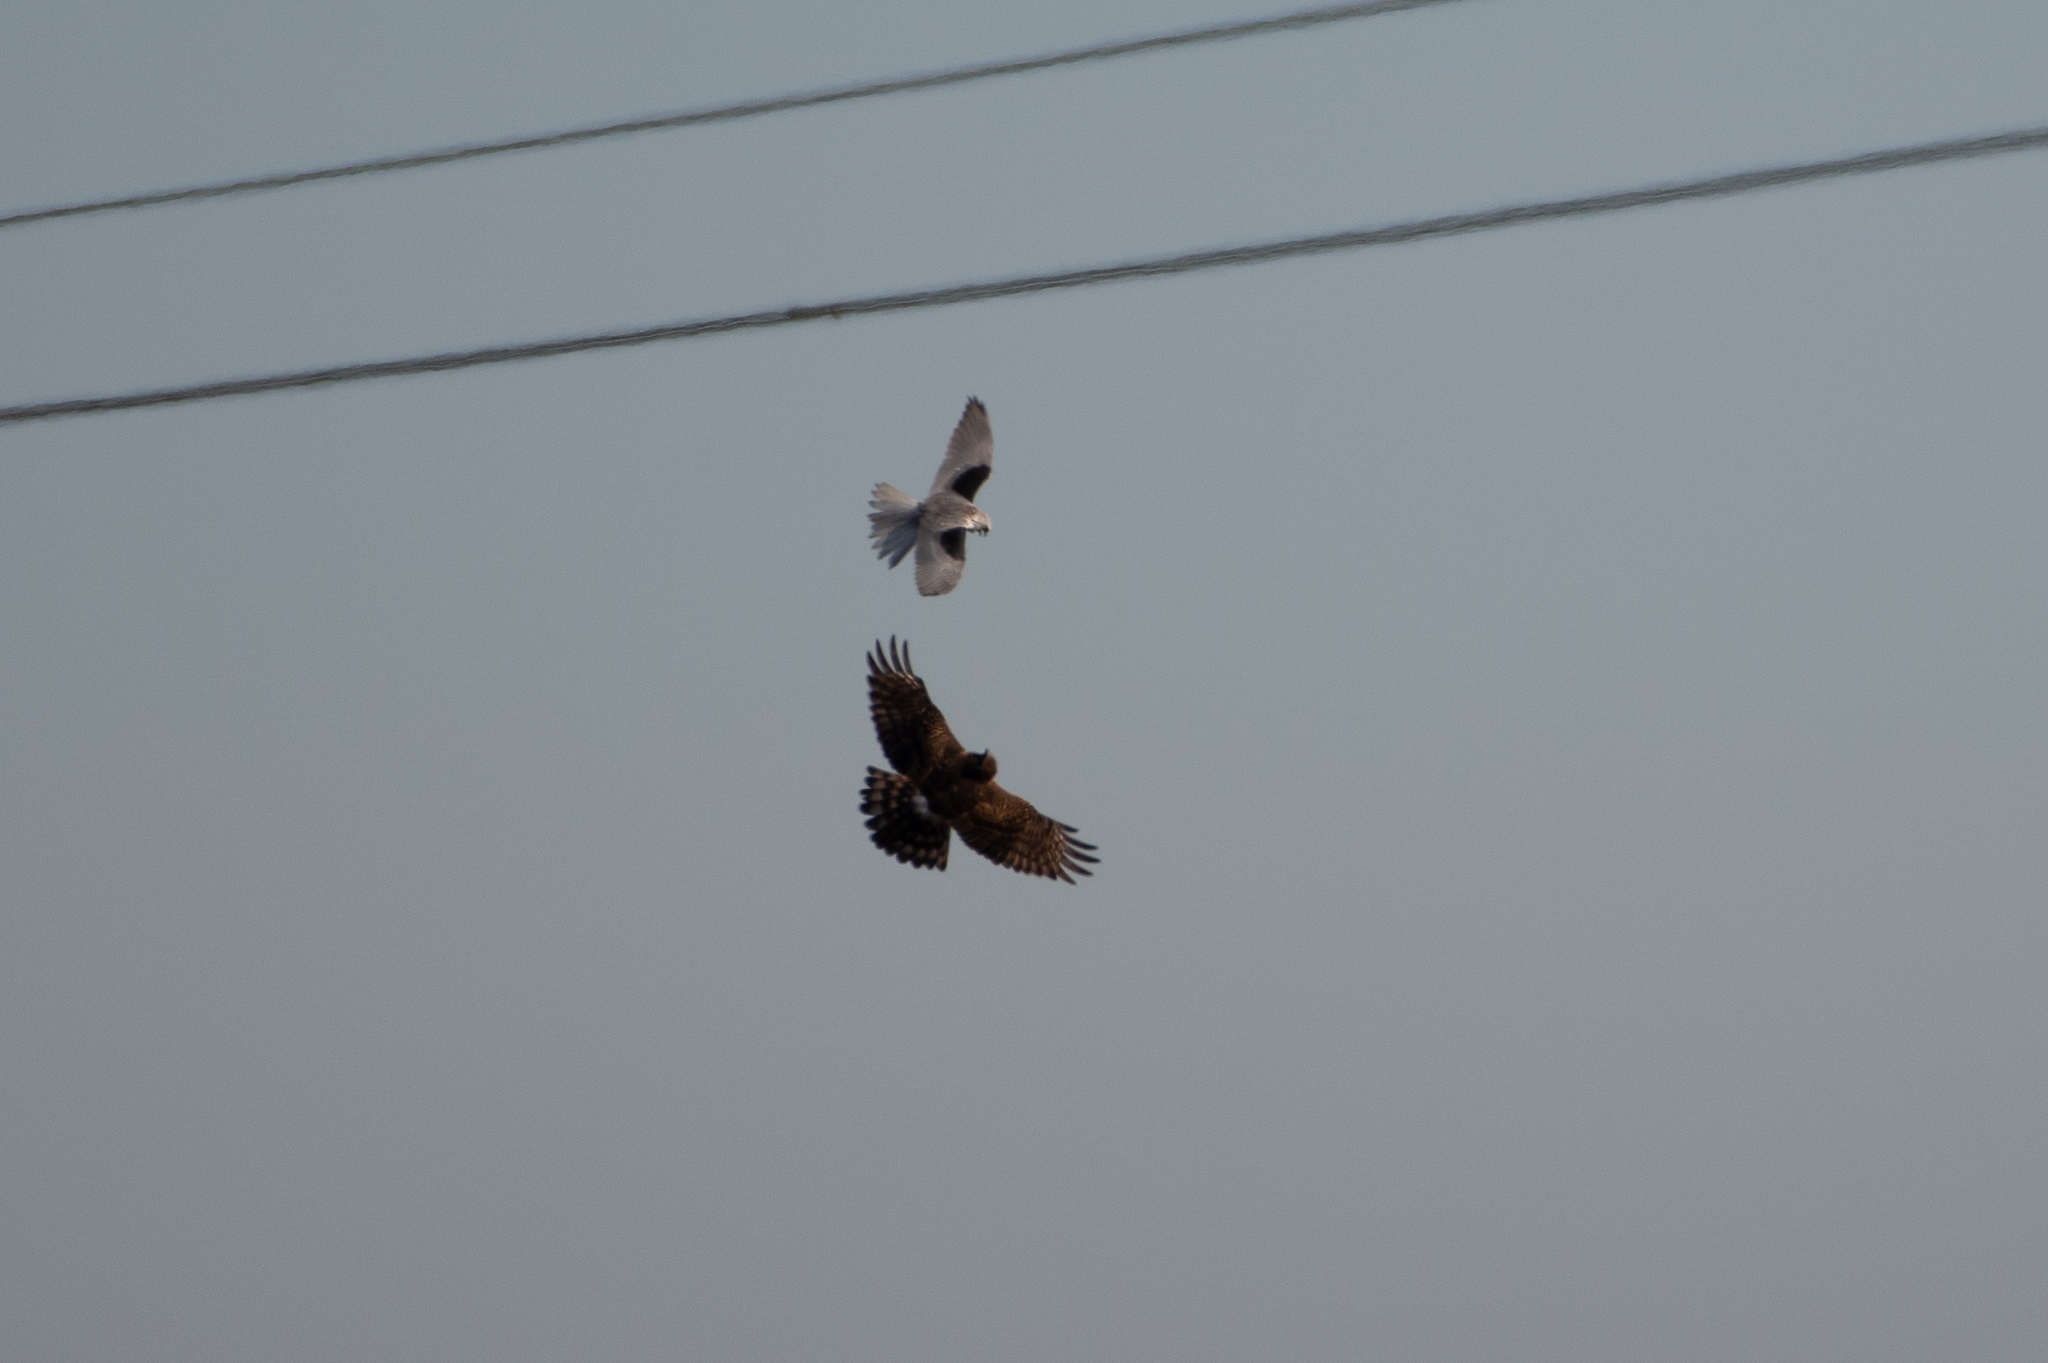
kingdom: Animalia
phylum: Chordata
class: Aves
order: Accipitriformes
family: Accipitridae
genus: Elanus
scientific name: Elanus leucurus
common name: White-tailed kite
